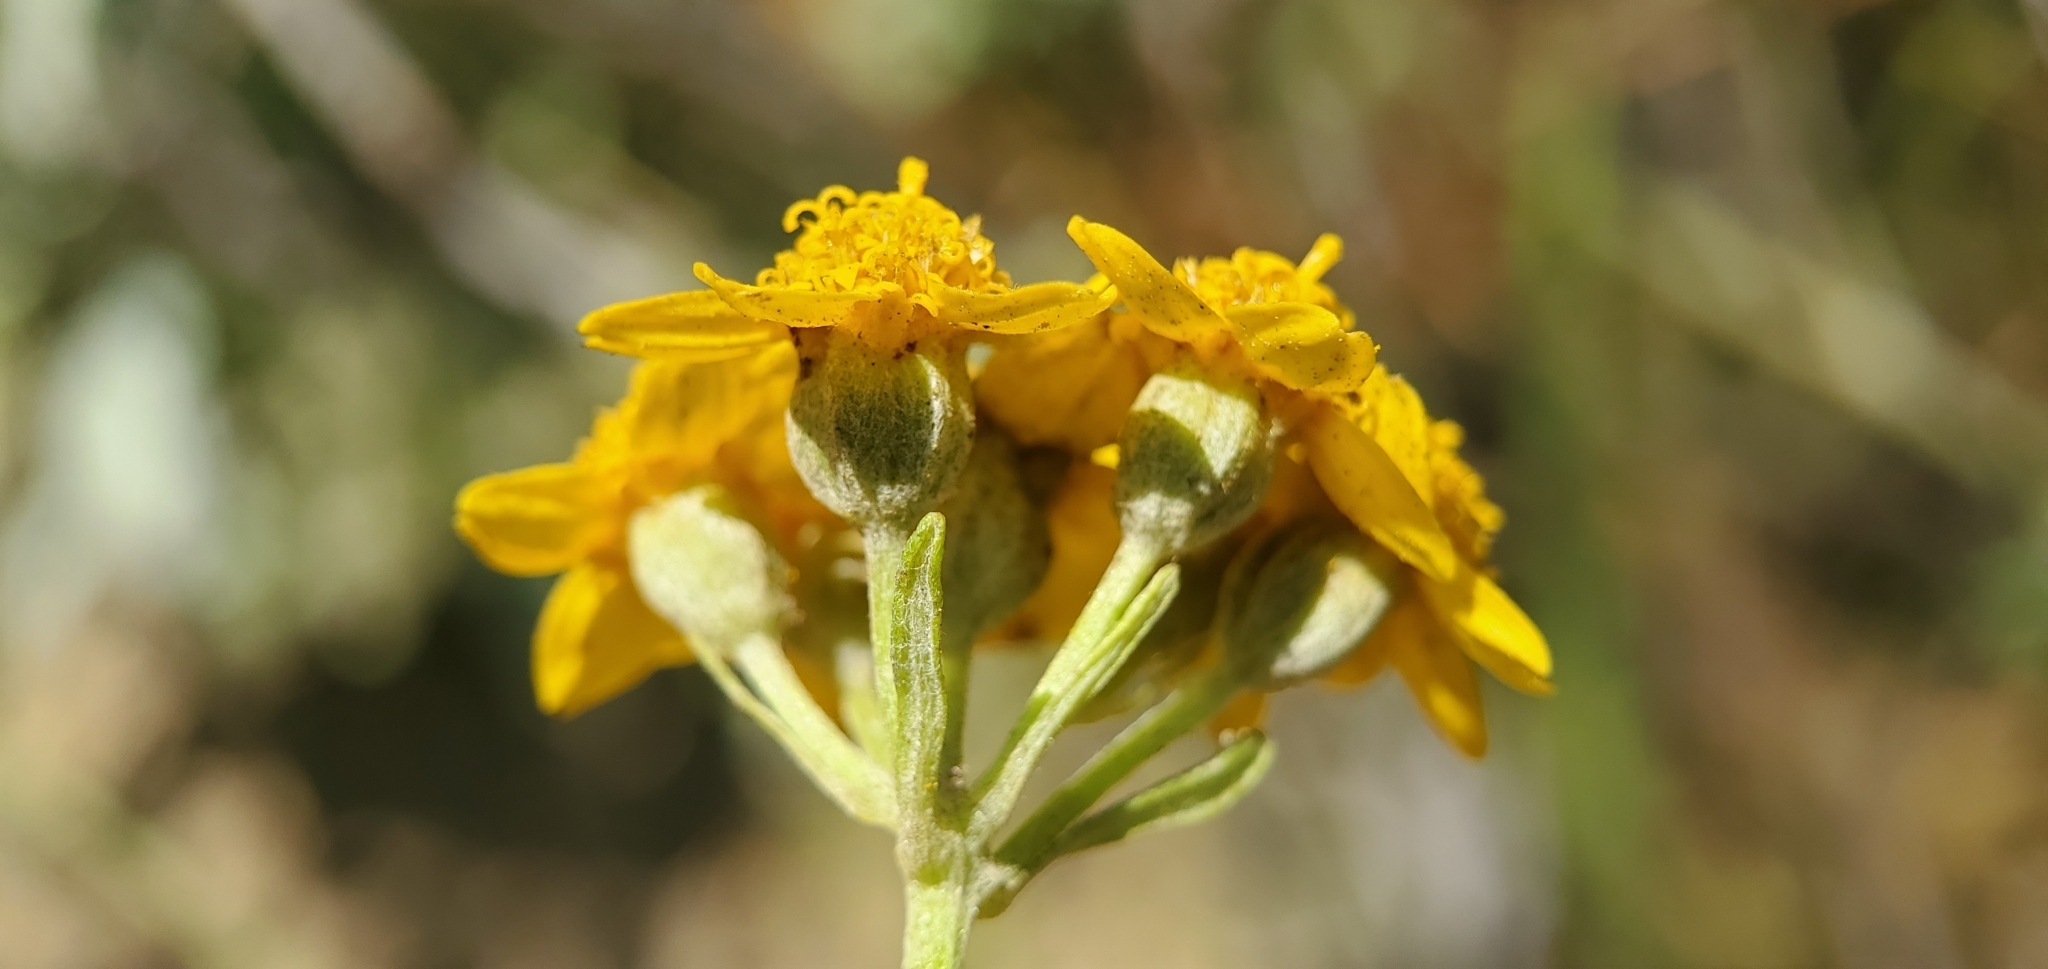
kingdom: Plantae
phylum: Tracheophyta
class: Magnoliopsida
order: Asterales
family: Asteraceae
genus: Eriophyllum
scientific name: Eriophyllum confertiflorum
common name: Golden-yarrow
